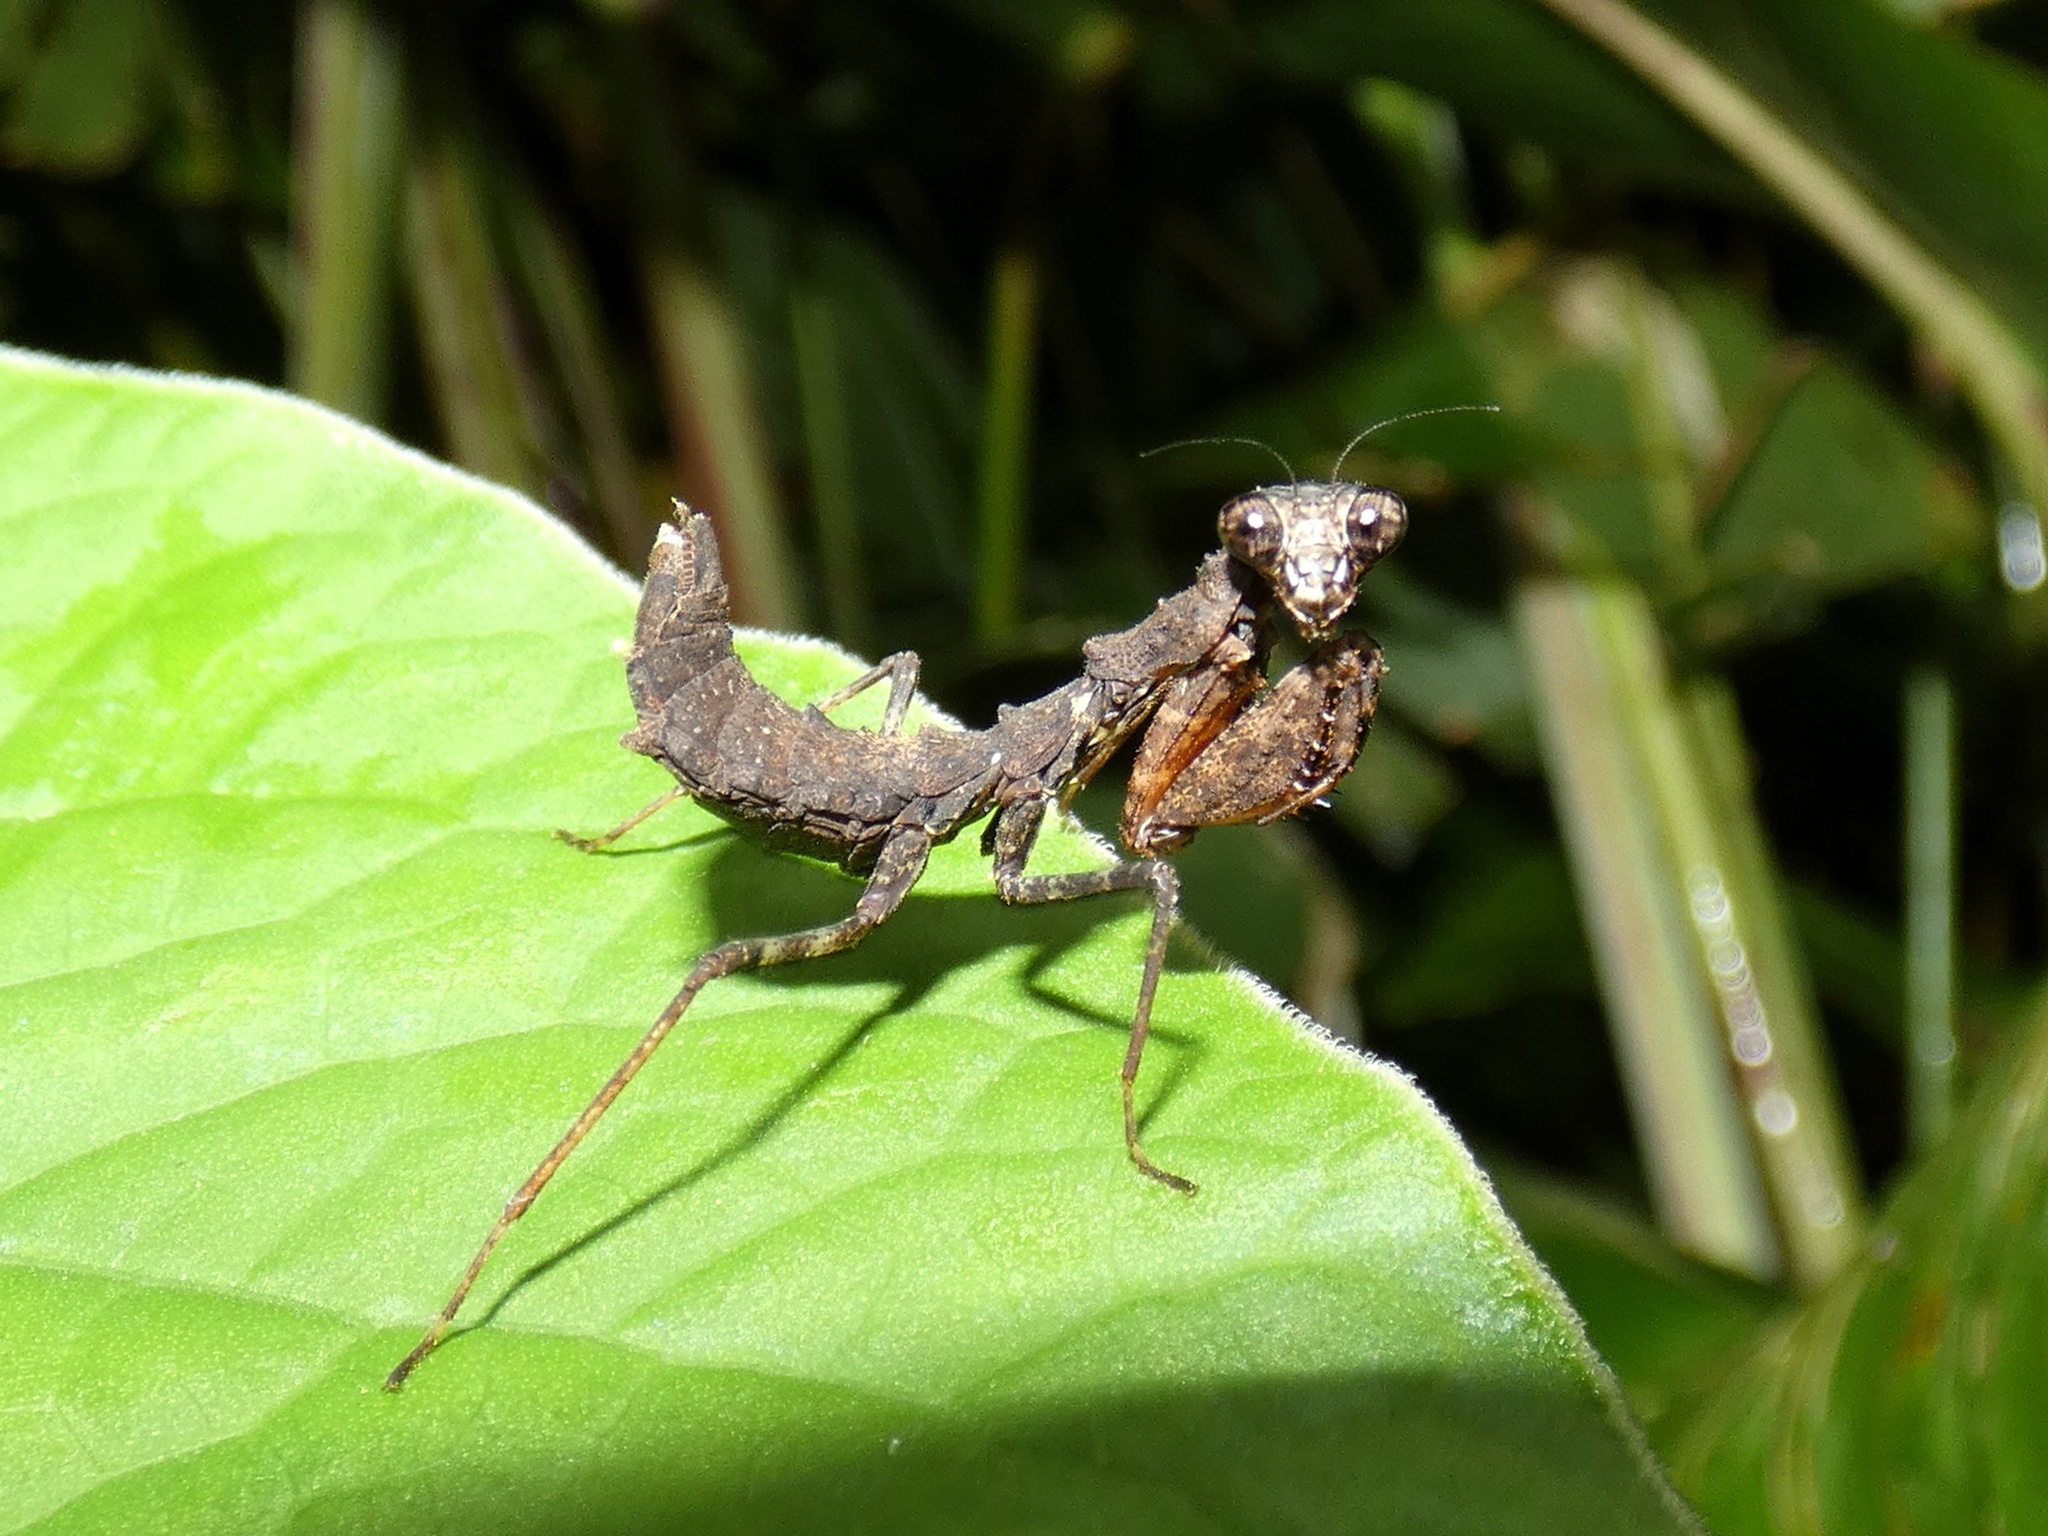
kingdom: Animalia
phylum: Arthropoda
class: Insecta
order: Mantodea
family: Thespidae
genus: Pseudomiopteryx
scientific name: Pseudomiopteryx infuscata
